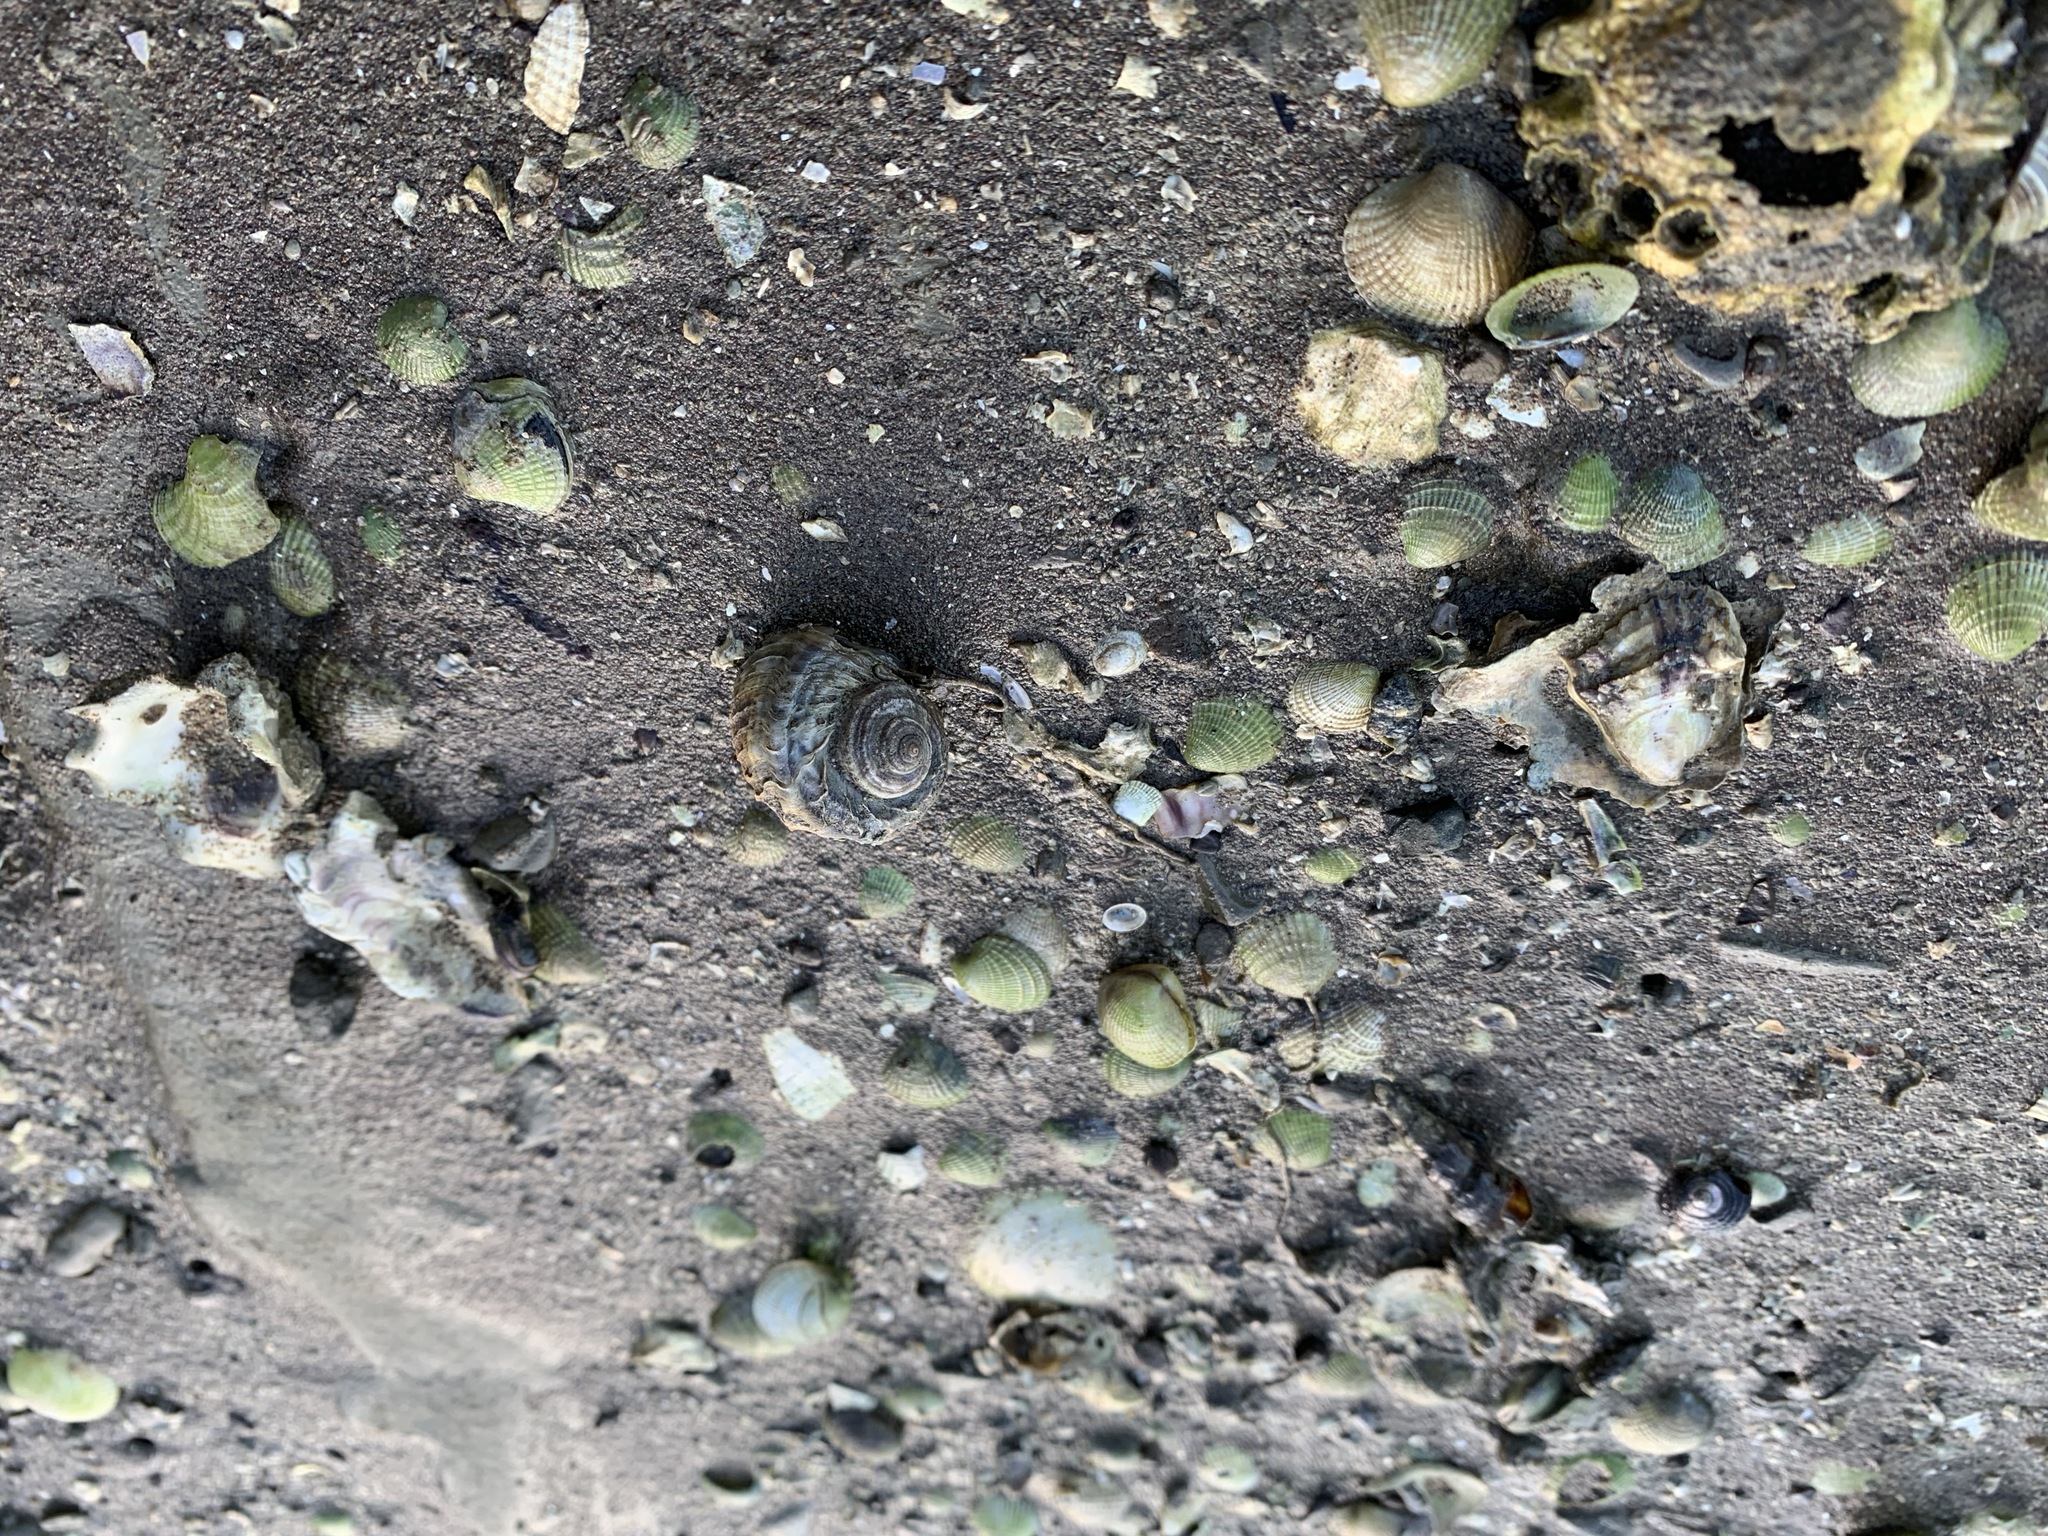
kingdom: Animalia
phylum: Mollusca
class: Gastropoda
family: Amphibolidae
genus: Amphibola
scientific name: Amphibola crenata
